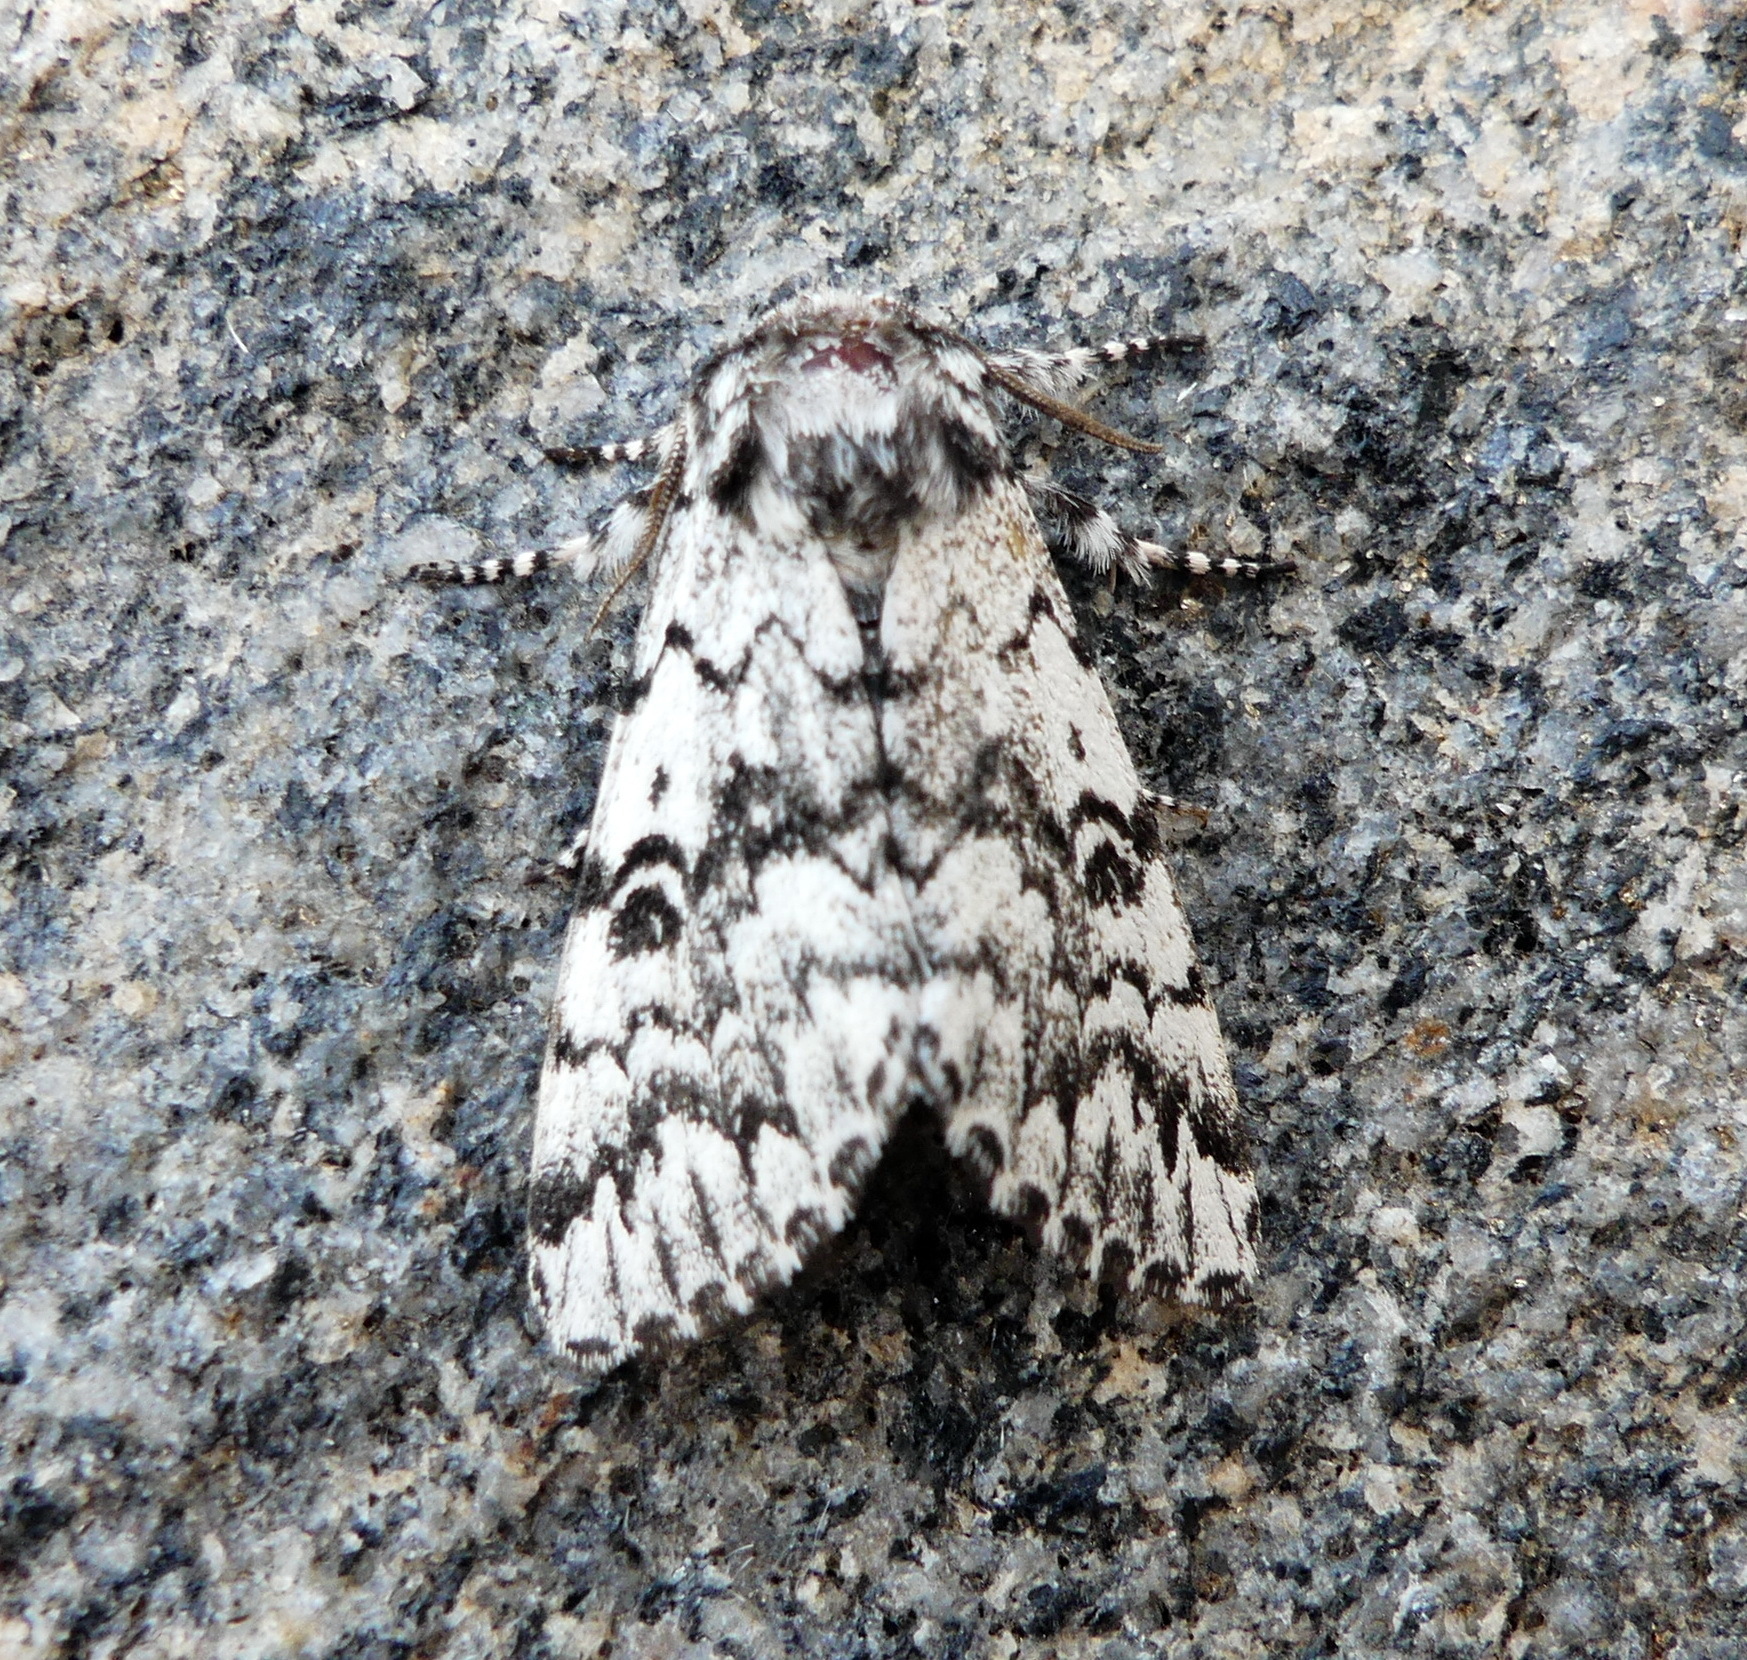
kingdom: Animalia
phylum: Arthropoda
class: Insecta
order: Lepidoptera
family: Noctuidae
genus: Panthea
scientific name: Panthea acronyctoides
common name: Black zigzag moth
